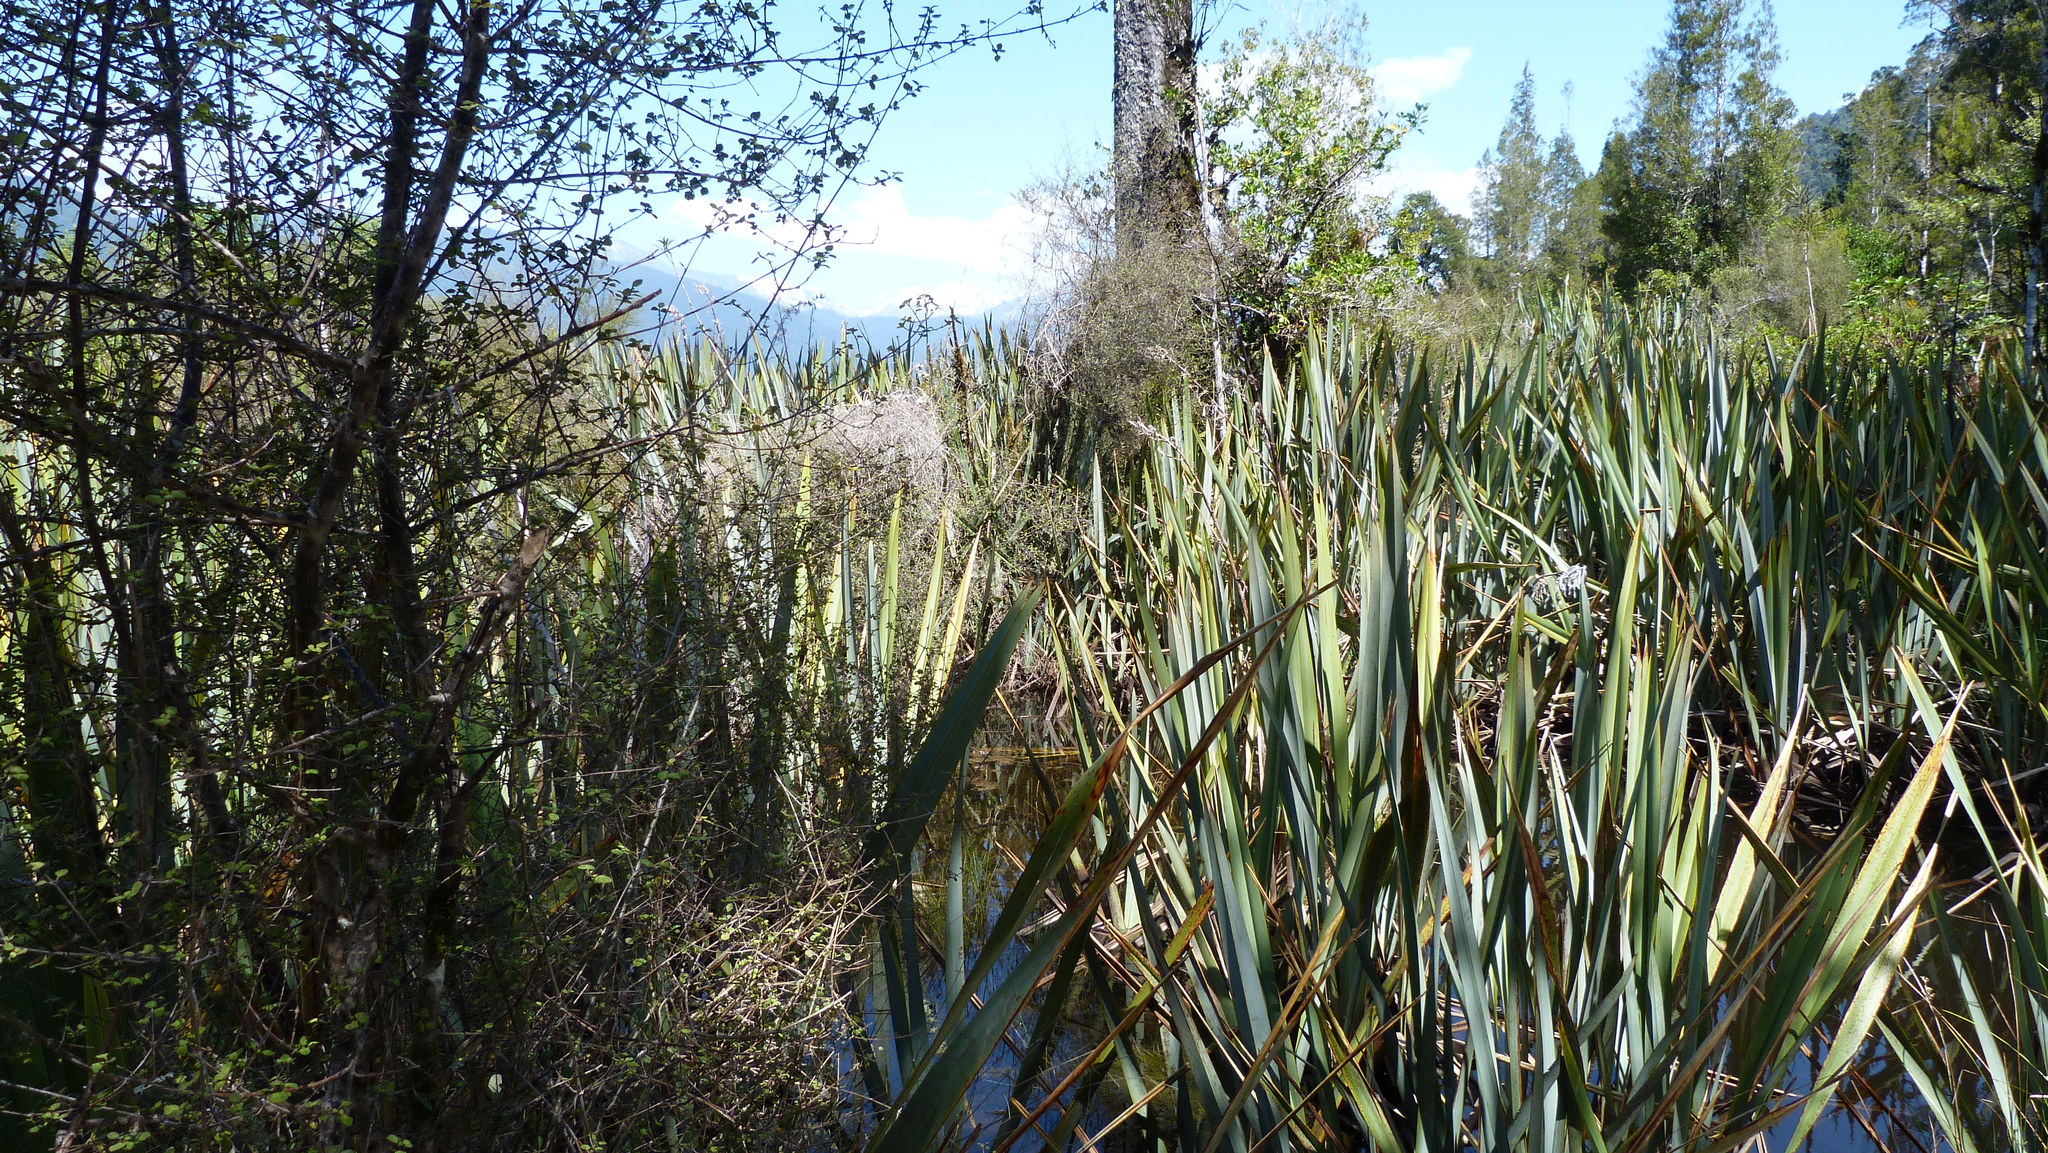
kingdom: Plantae
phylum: Tracheophyta
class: Pinopsida
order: Pinales
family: Podocarpaceae
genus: Dacrycarpus
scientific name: Dacrycarpus dacrydioides
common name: White pine
